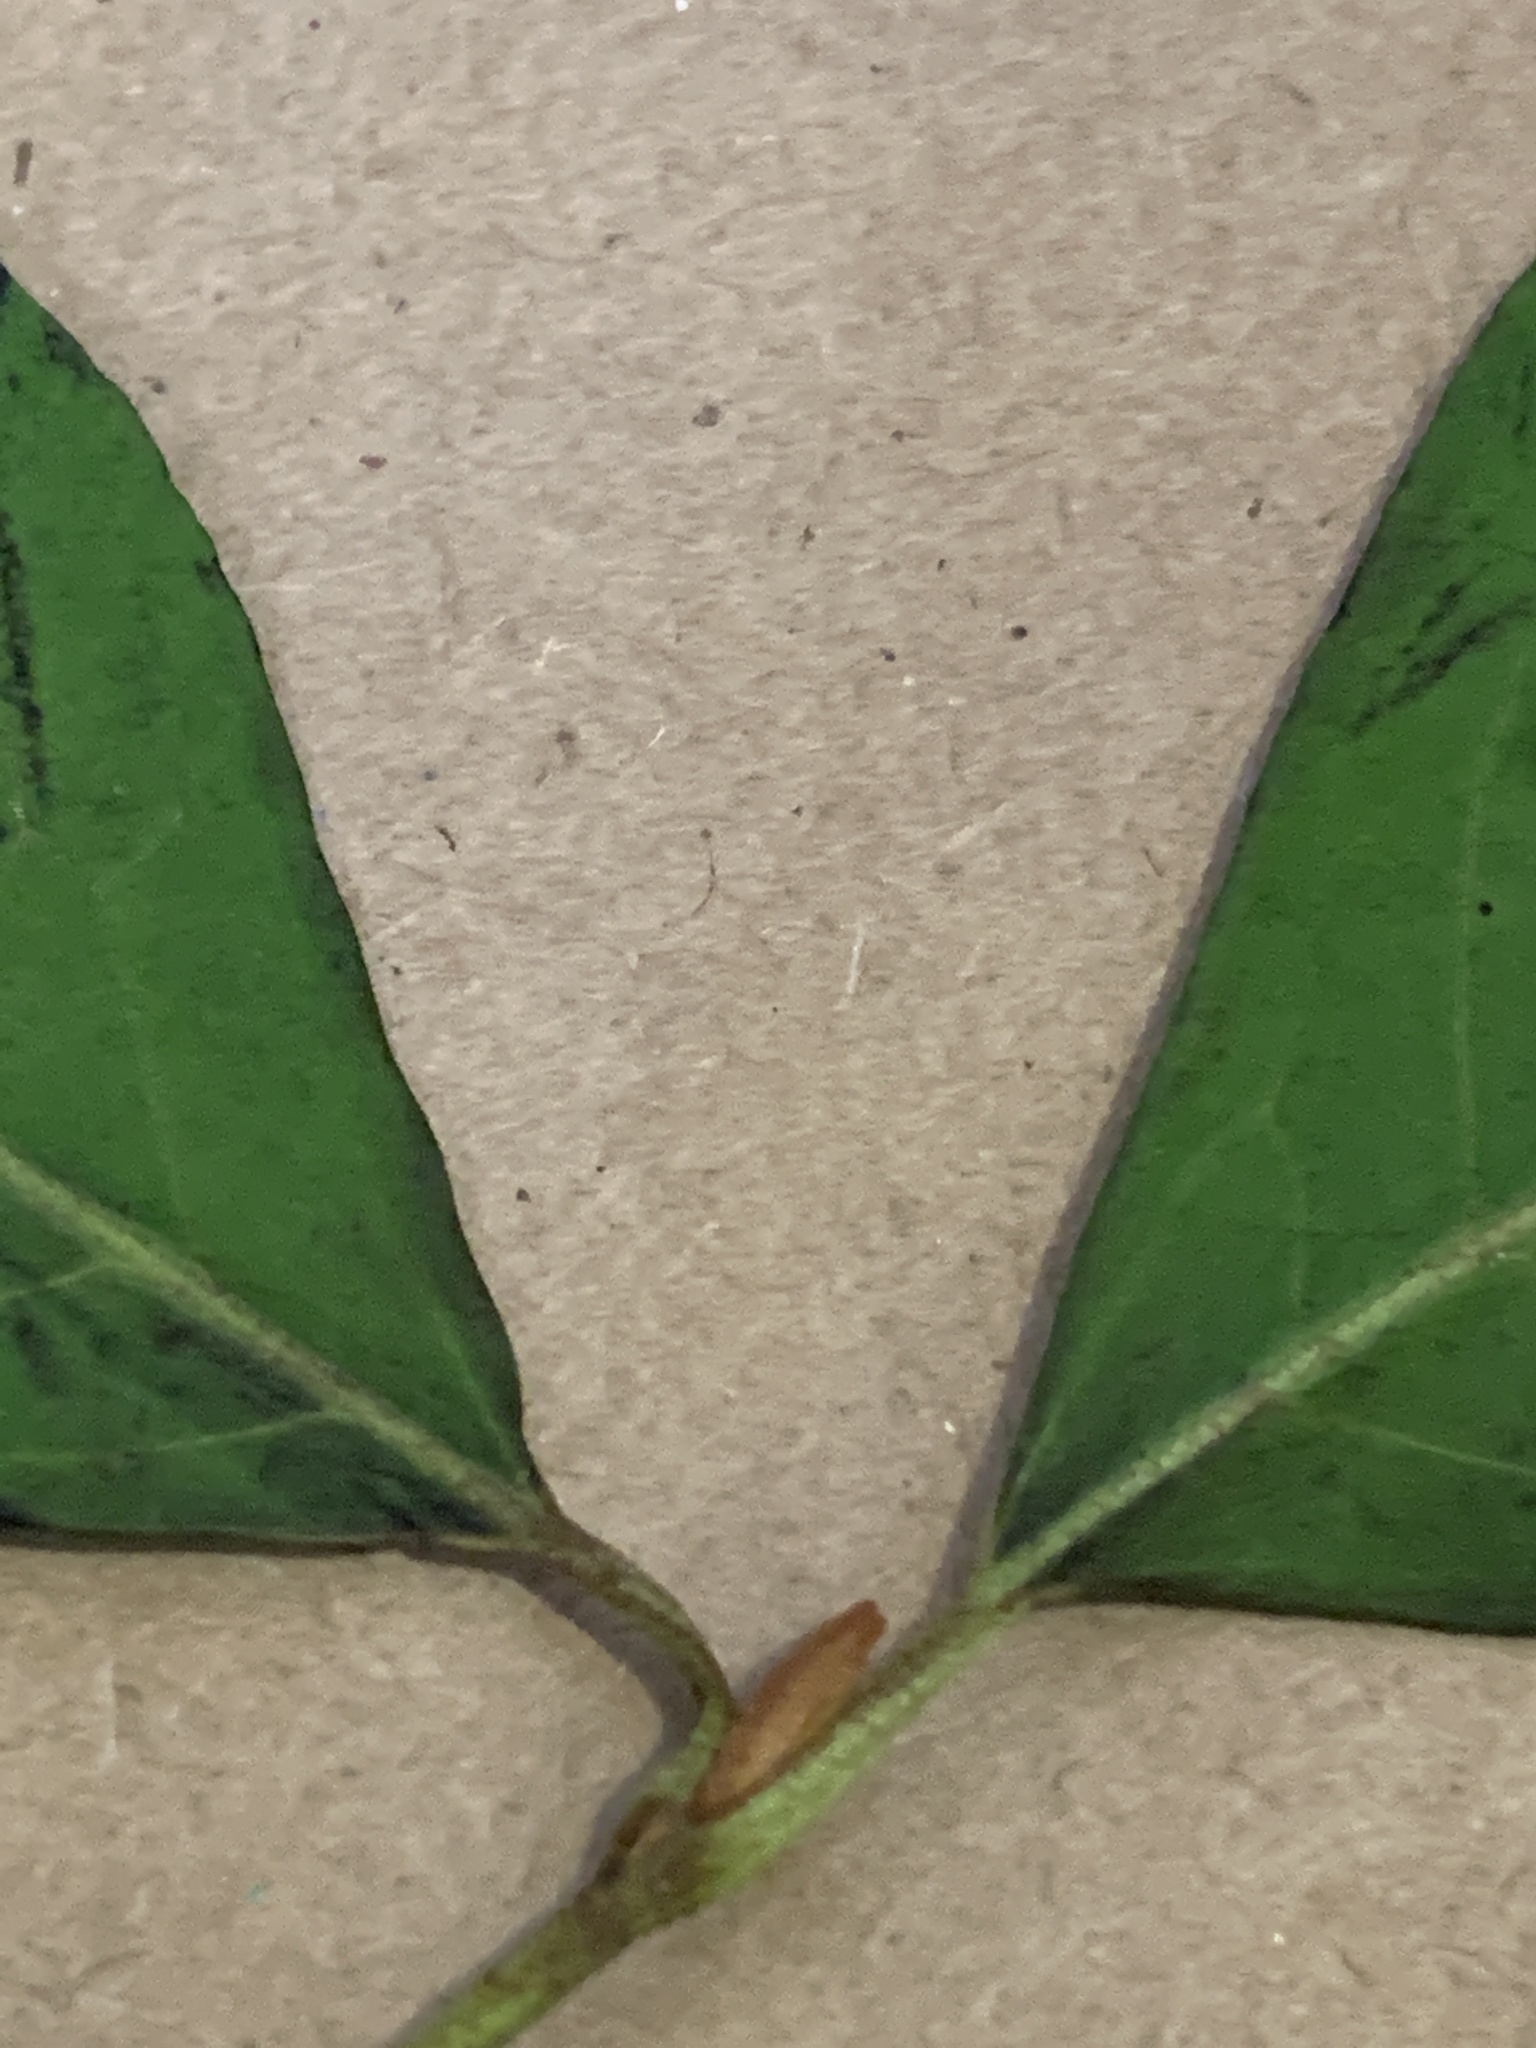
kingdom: Plantae
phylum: Tracheophyta
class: Magnoliopsida
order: Dipsacales
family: Viburnaceae
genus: Viburnum
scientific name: Viburnum cassinoides
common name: Swamp haw
